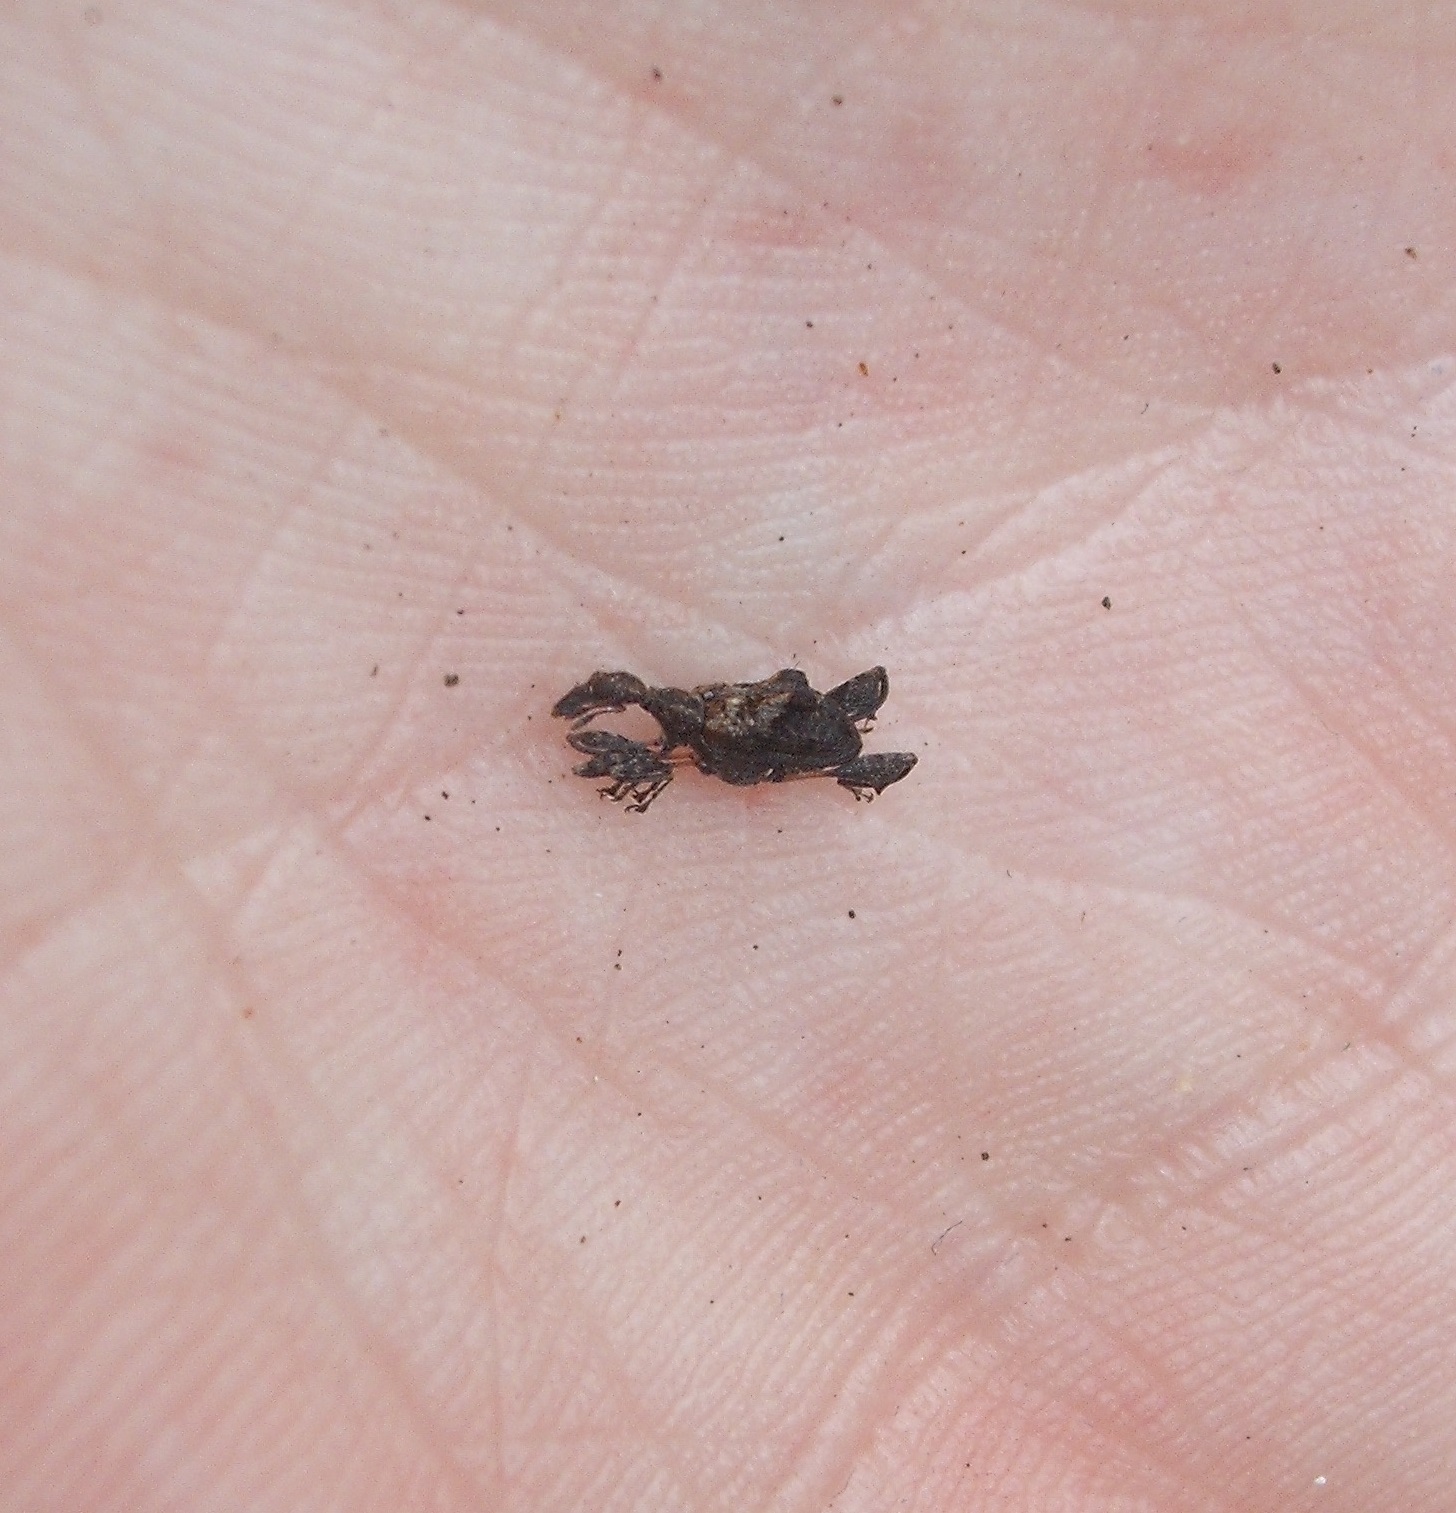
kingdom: Animalia
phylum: Arthropoda
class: Insecta
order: Coleoptera
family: Curculionidae
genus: Stephanorhynchus
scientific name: Stephanorhynchus lawsoni
